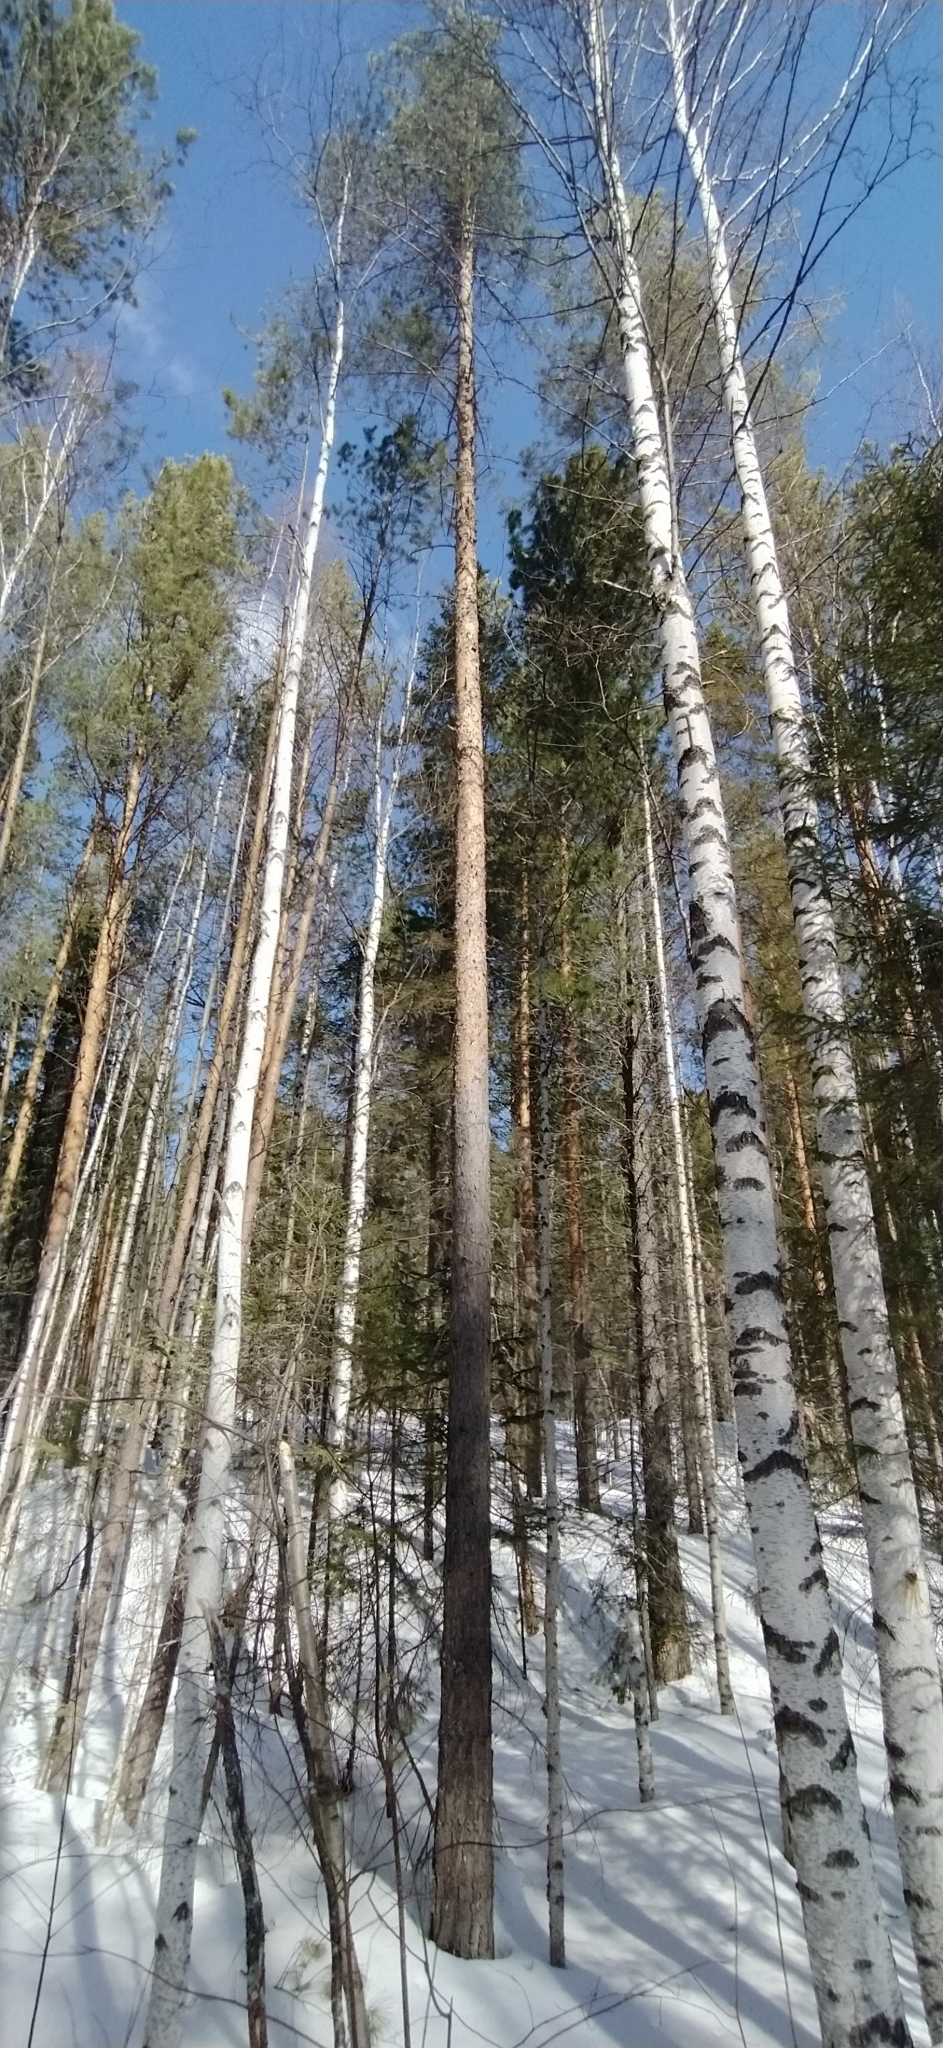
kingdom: Plantae
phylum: Tracheophyta
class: Pinopsida
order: Pinales
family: Pinaceae
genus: Pinus
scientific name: Pinus sylvestris
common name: Scots pine
